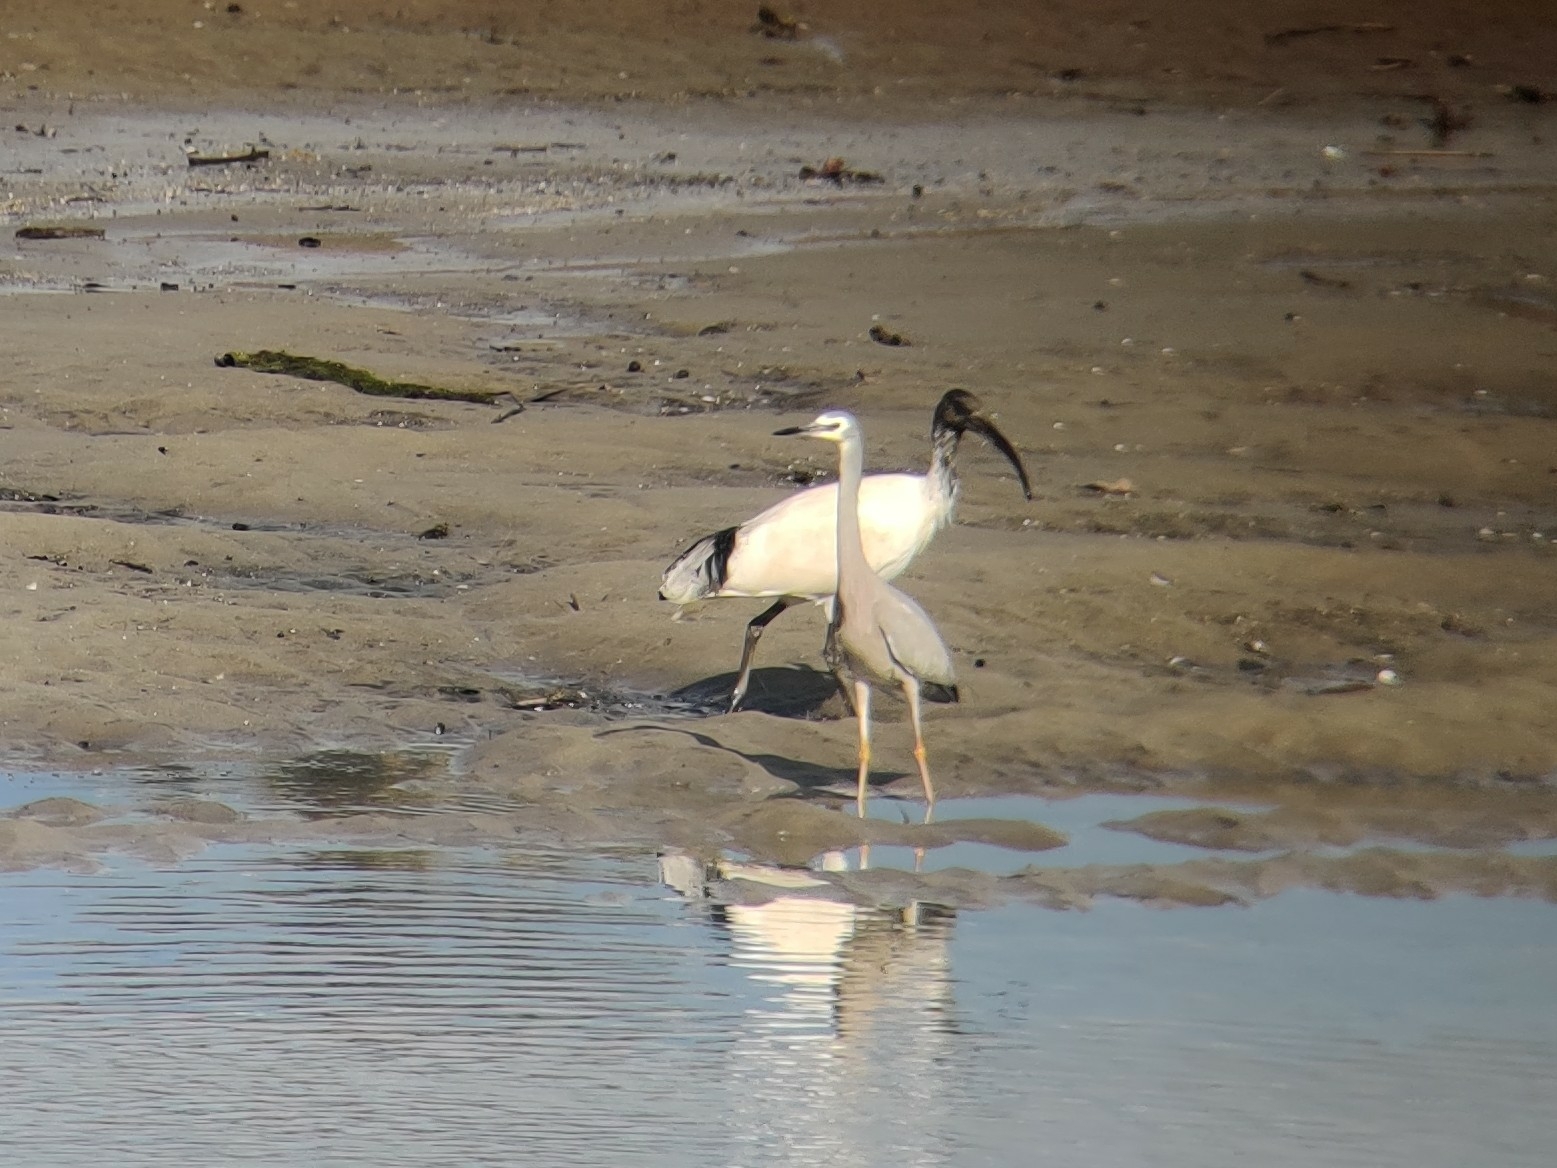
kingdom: Animalia
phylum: Chordata
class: Aves
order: Pelecaniformes
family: Threskiornithidae
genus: Threskiornis
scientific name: Threskiornis molucca
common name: Australian white ibis
